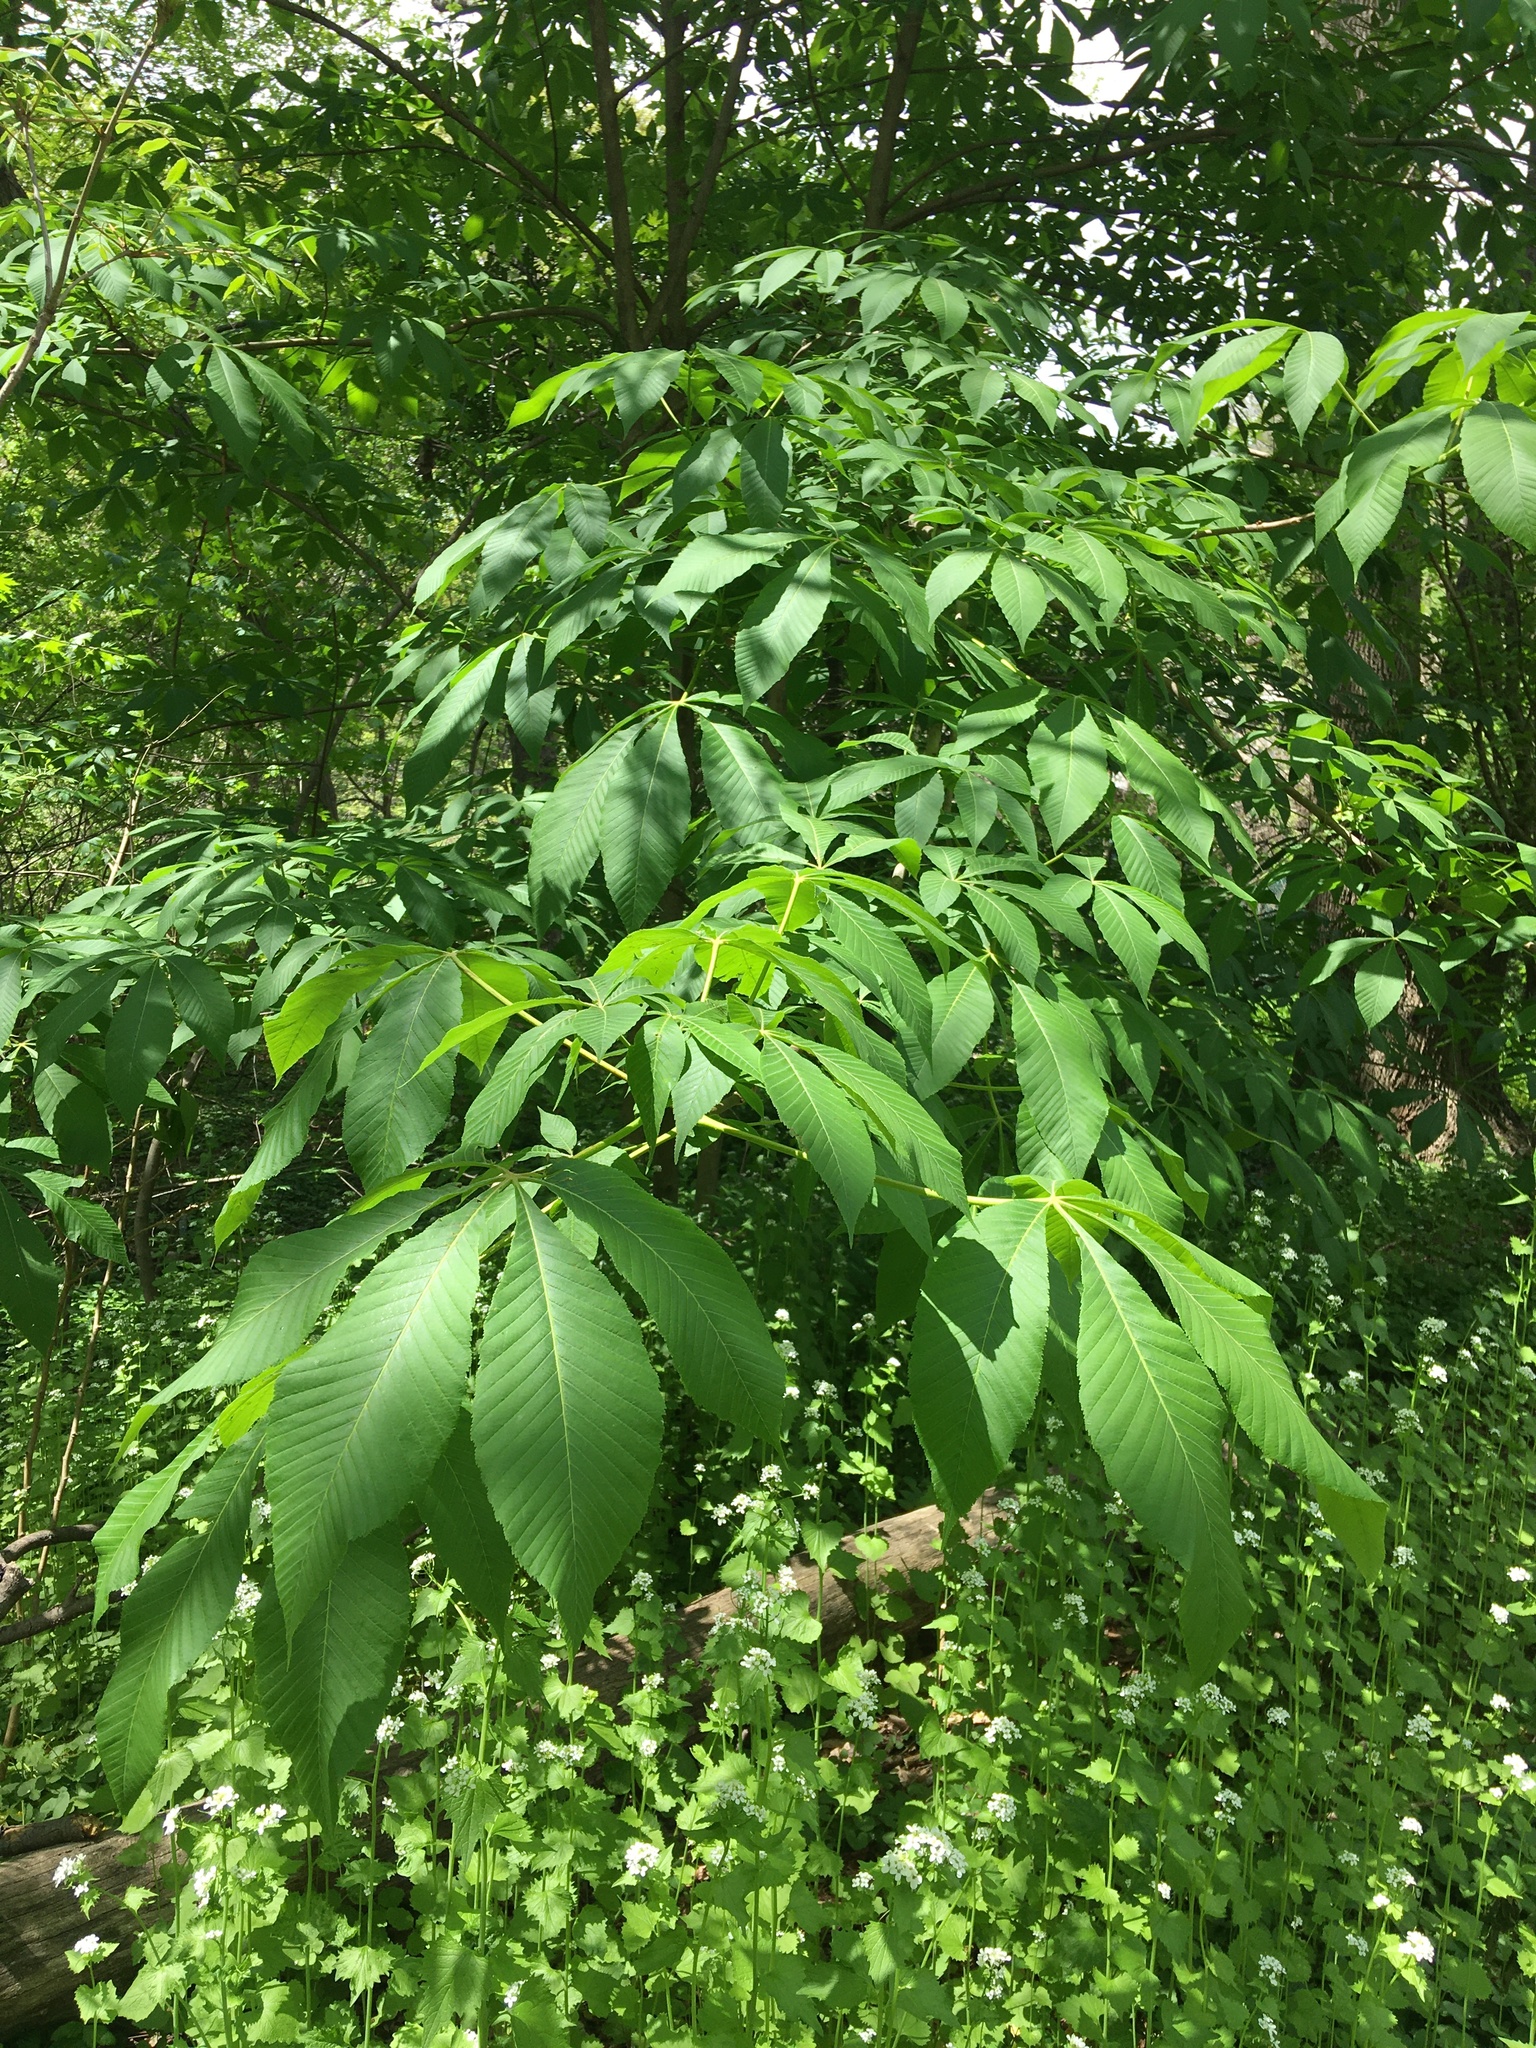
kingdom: Plantae
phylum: Tracheophyta
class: Magnoliopsida
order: Sapindales
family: Sapindaceae
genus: Aesculus
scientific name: Aesculus flava
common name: Yellow buckeye
